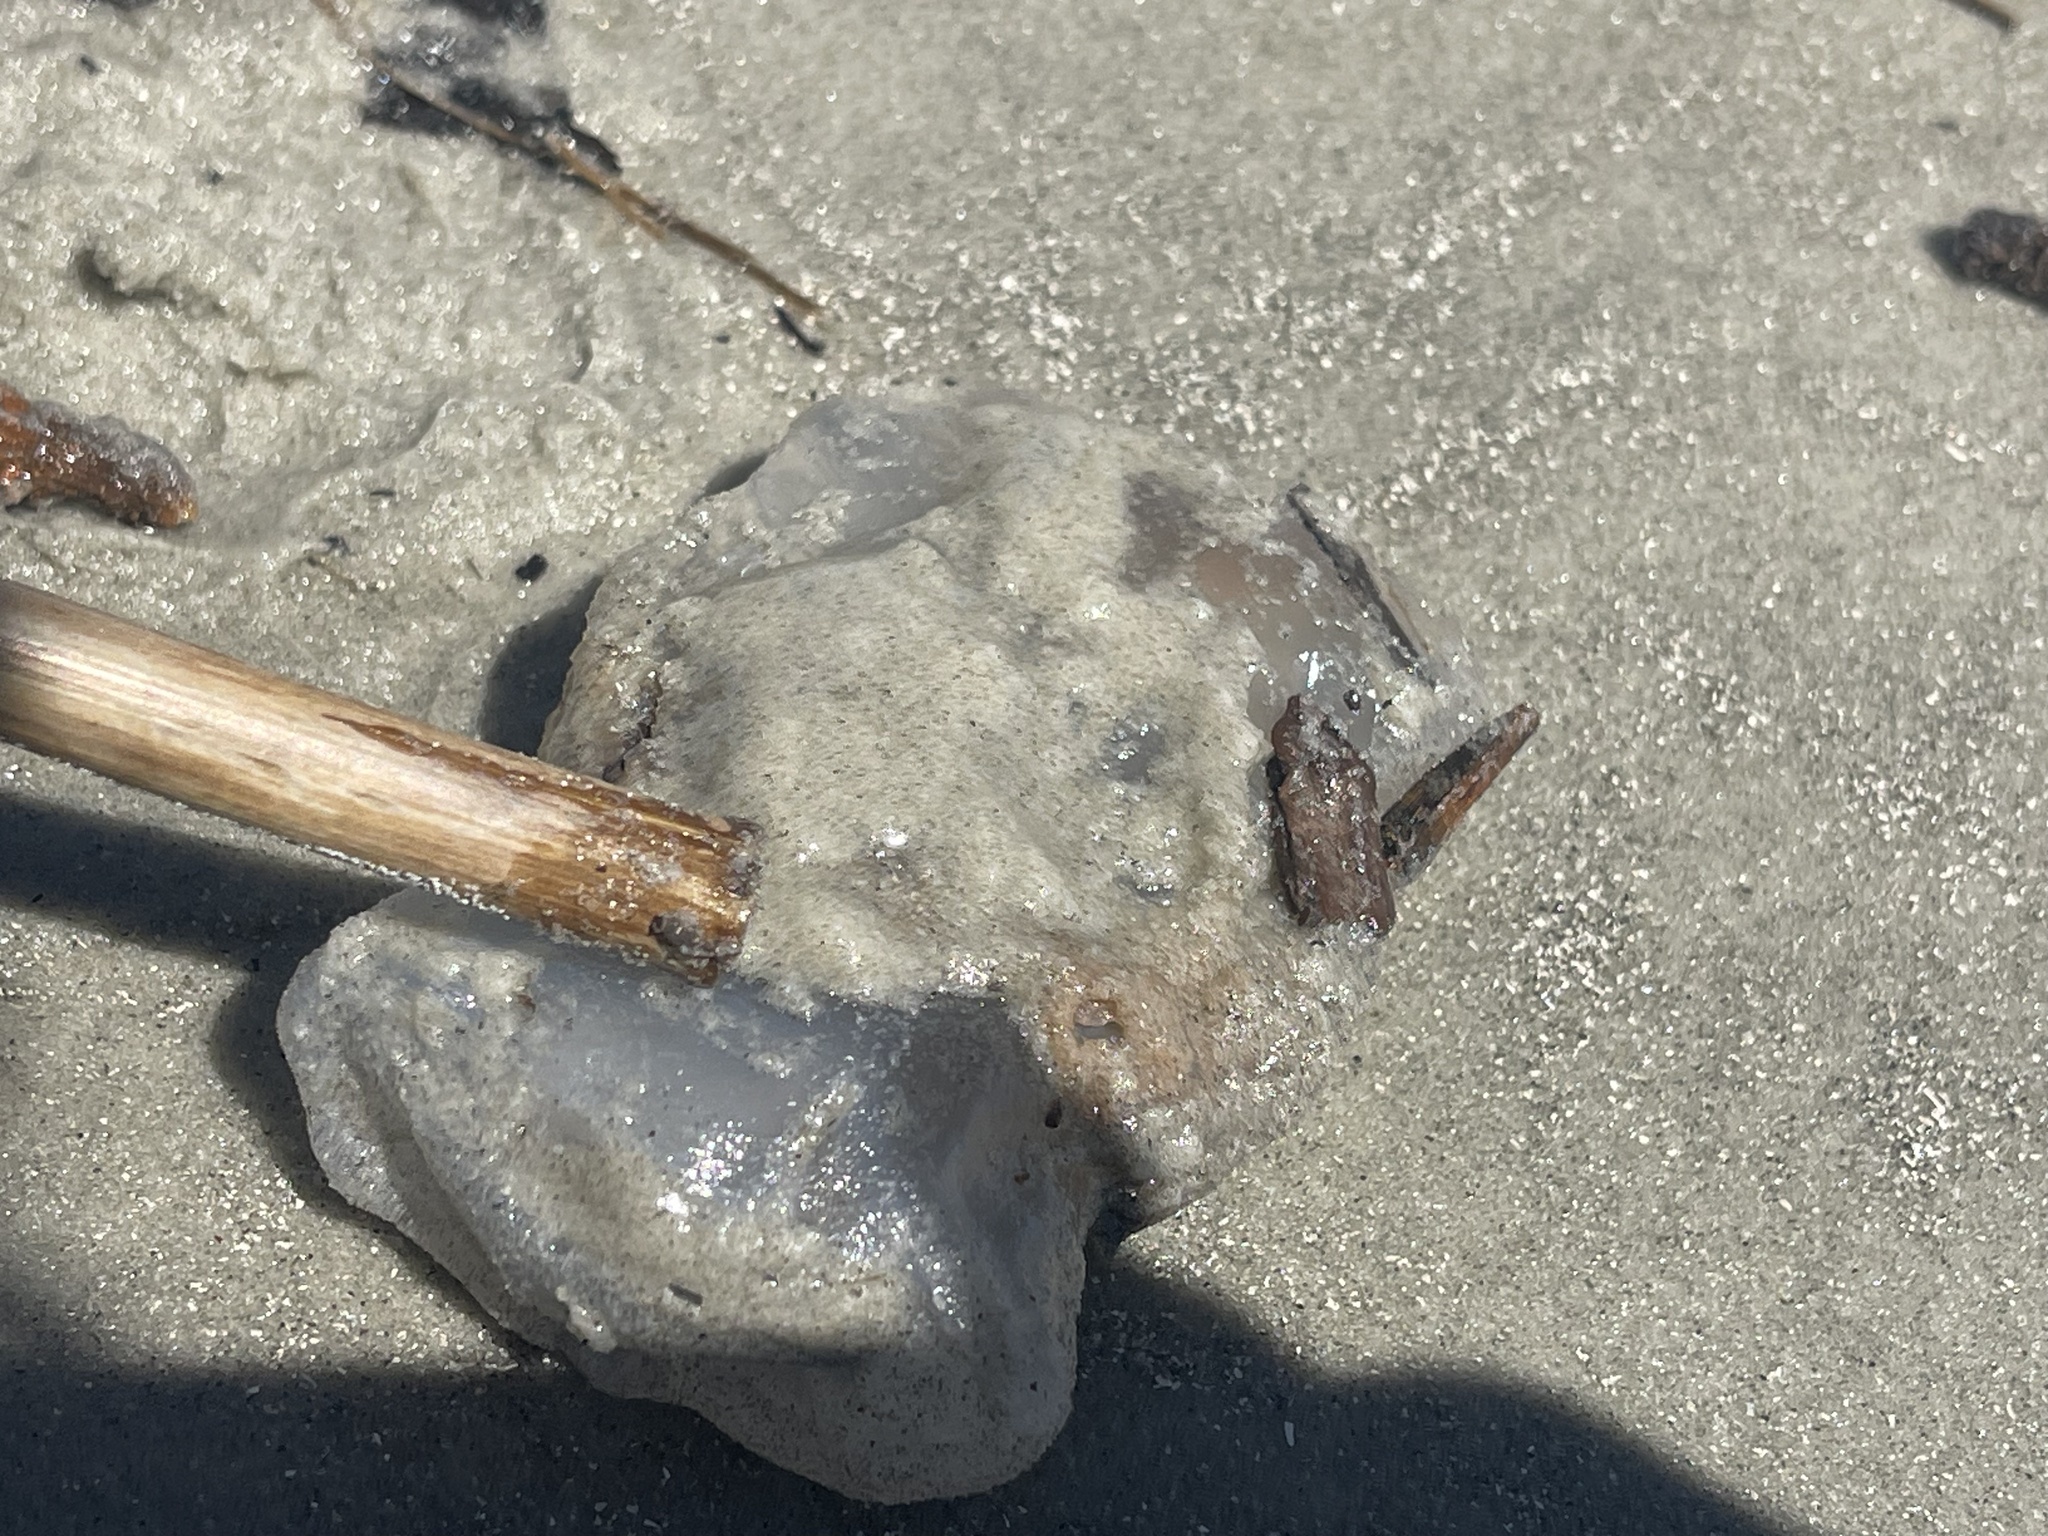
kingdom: Animalia
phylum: Cnidaria
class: Scyphozoa
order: Rhizostomeae
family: Stomolophidae
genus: Stomolophus
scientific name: Stomolophus meleagris
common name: Cabbagehead
